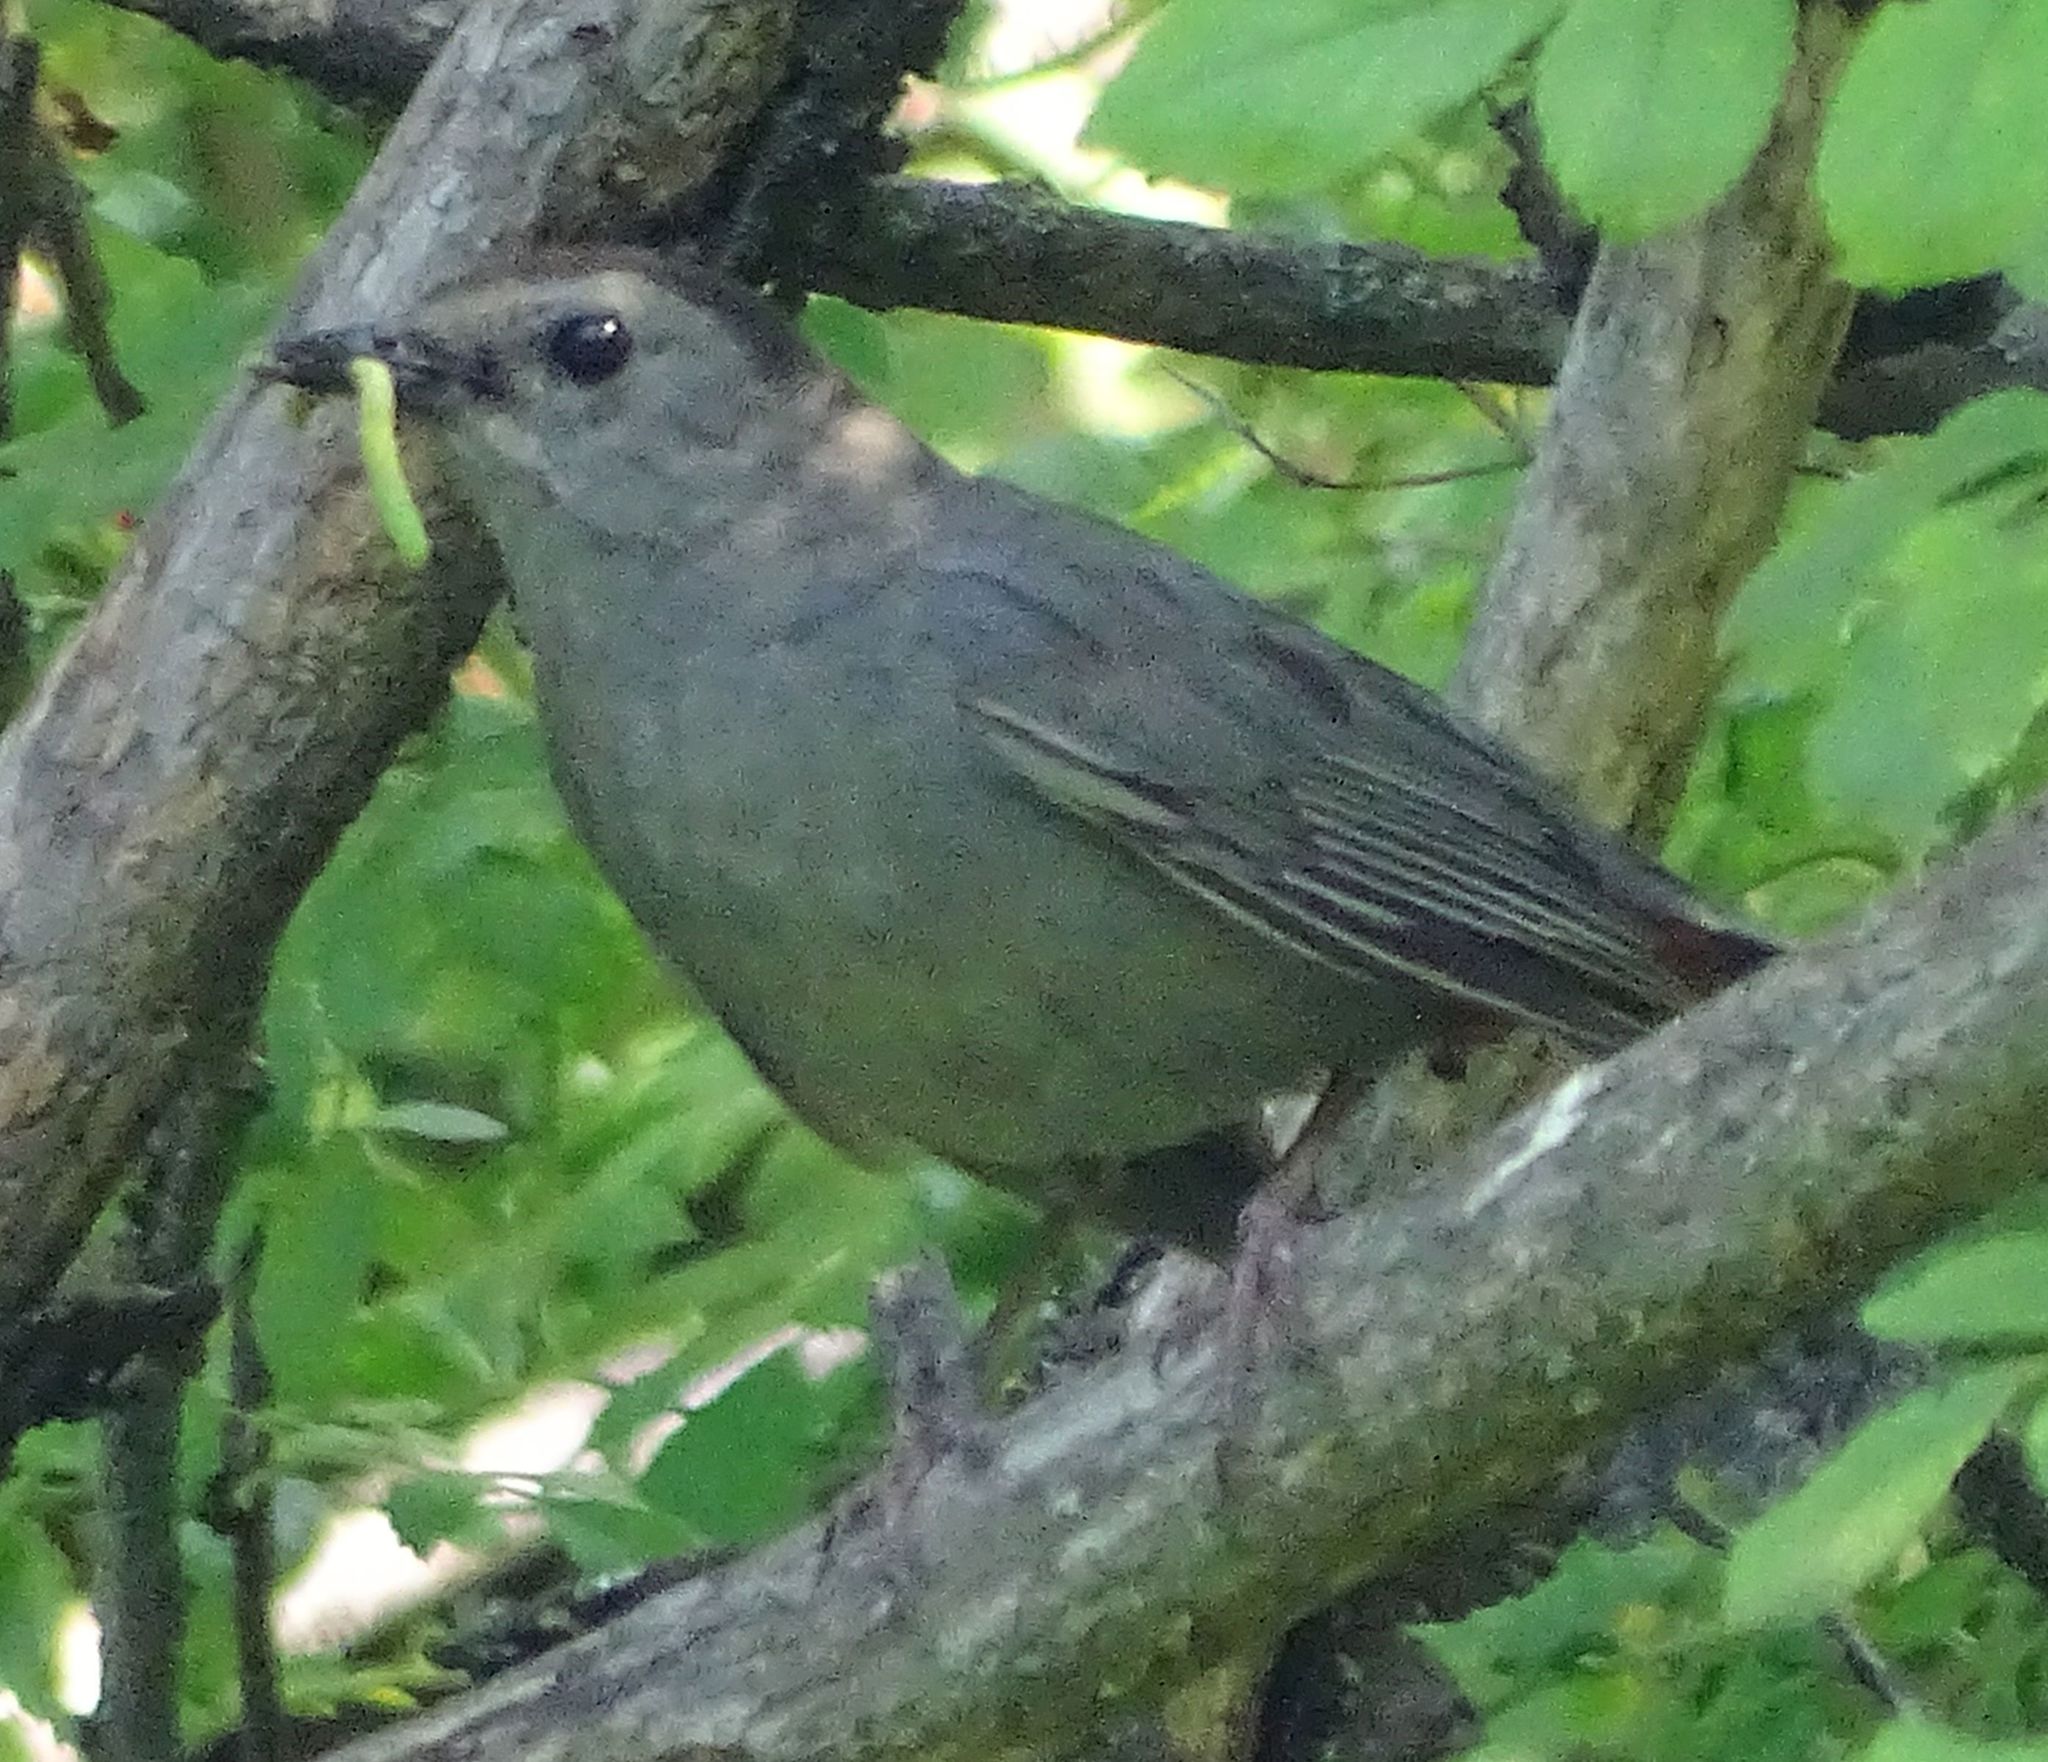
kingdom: Animalia
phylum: Chordata
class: Aves
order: Passeriformes
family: Mimidae
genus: Dumetella
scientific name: Dumetella carolinensis
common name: Gray catbird
